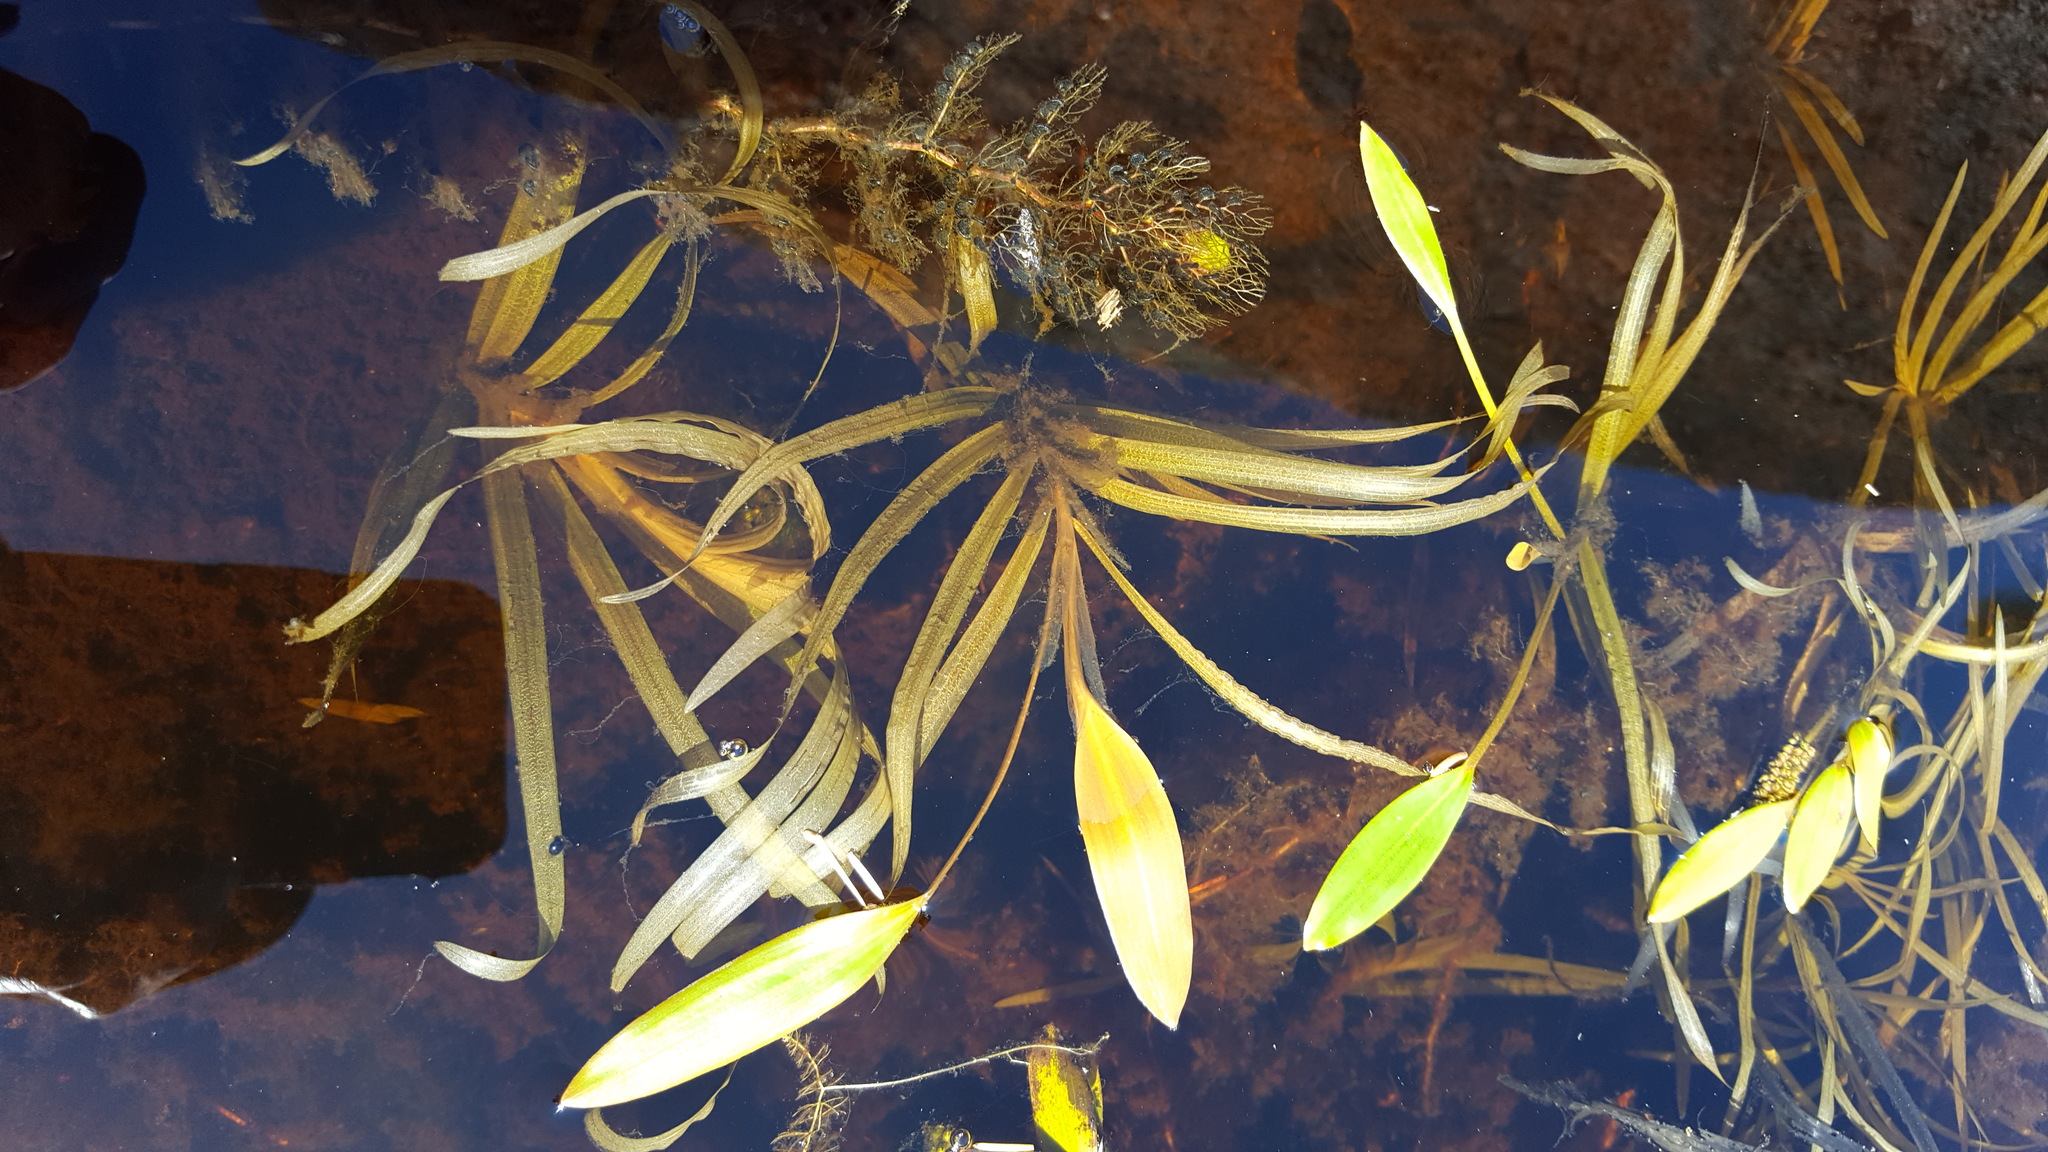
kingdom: Plantae
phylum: Tracheophyta
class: Liliopsida
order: Alismatales
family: Potamogetonaceae
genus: Potamogeton
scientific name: Potamogeton epihydrus
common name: American pondweed
